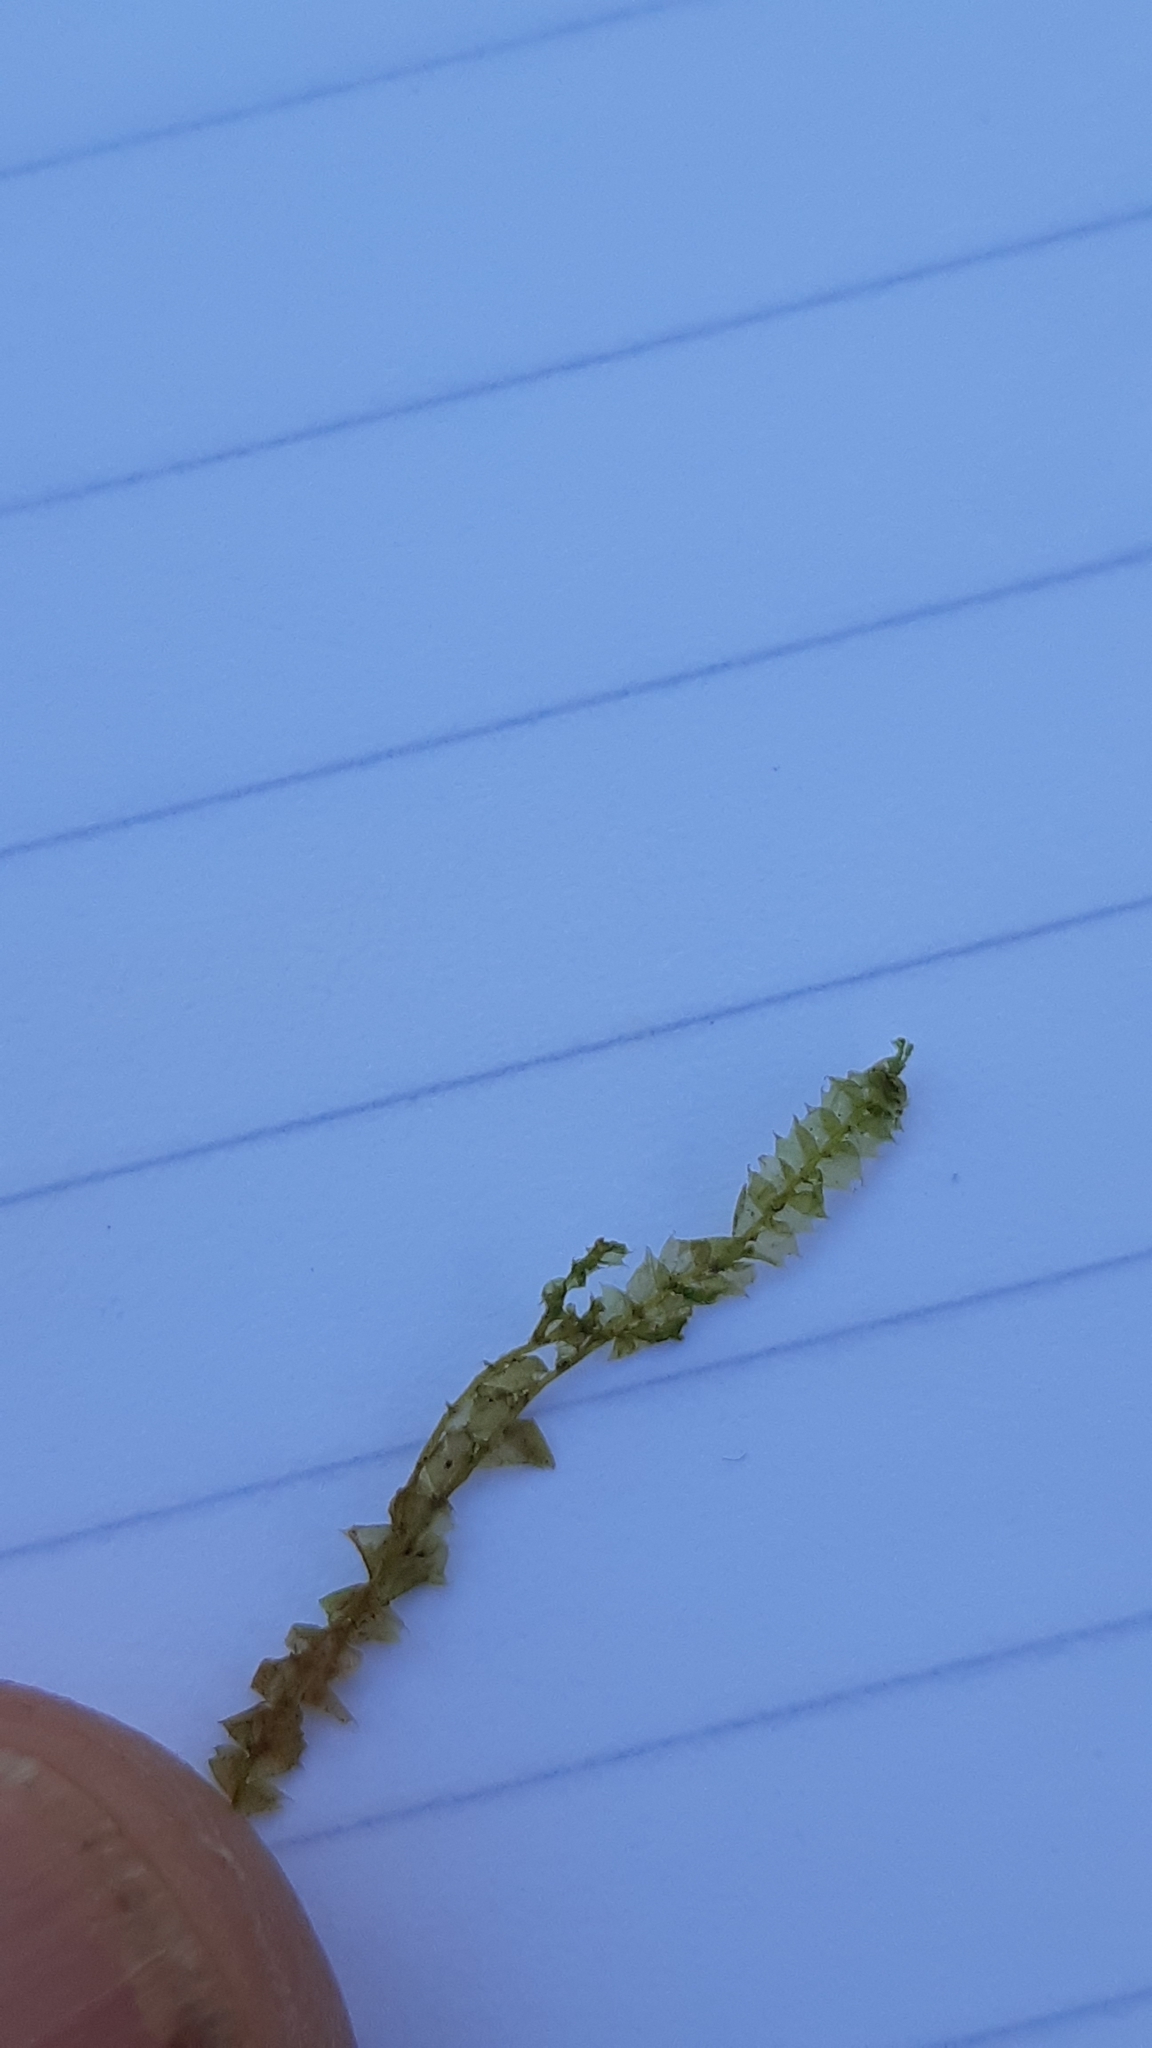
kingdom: Plantae
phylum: Marchantiophyta
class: Jungermanniopsida
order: Jungermanniales
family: Lophocoleaceae
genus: Lophocolea
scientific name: Lophocolea bidentata
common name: Bifid crestwort
